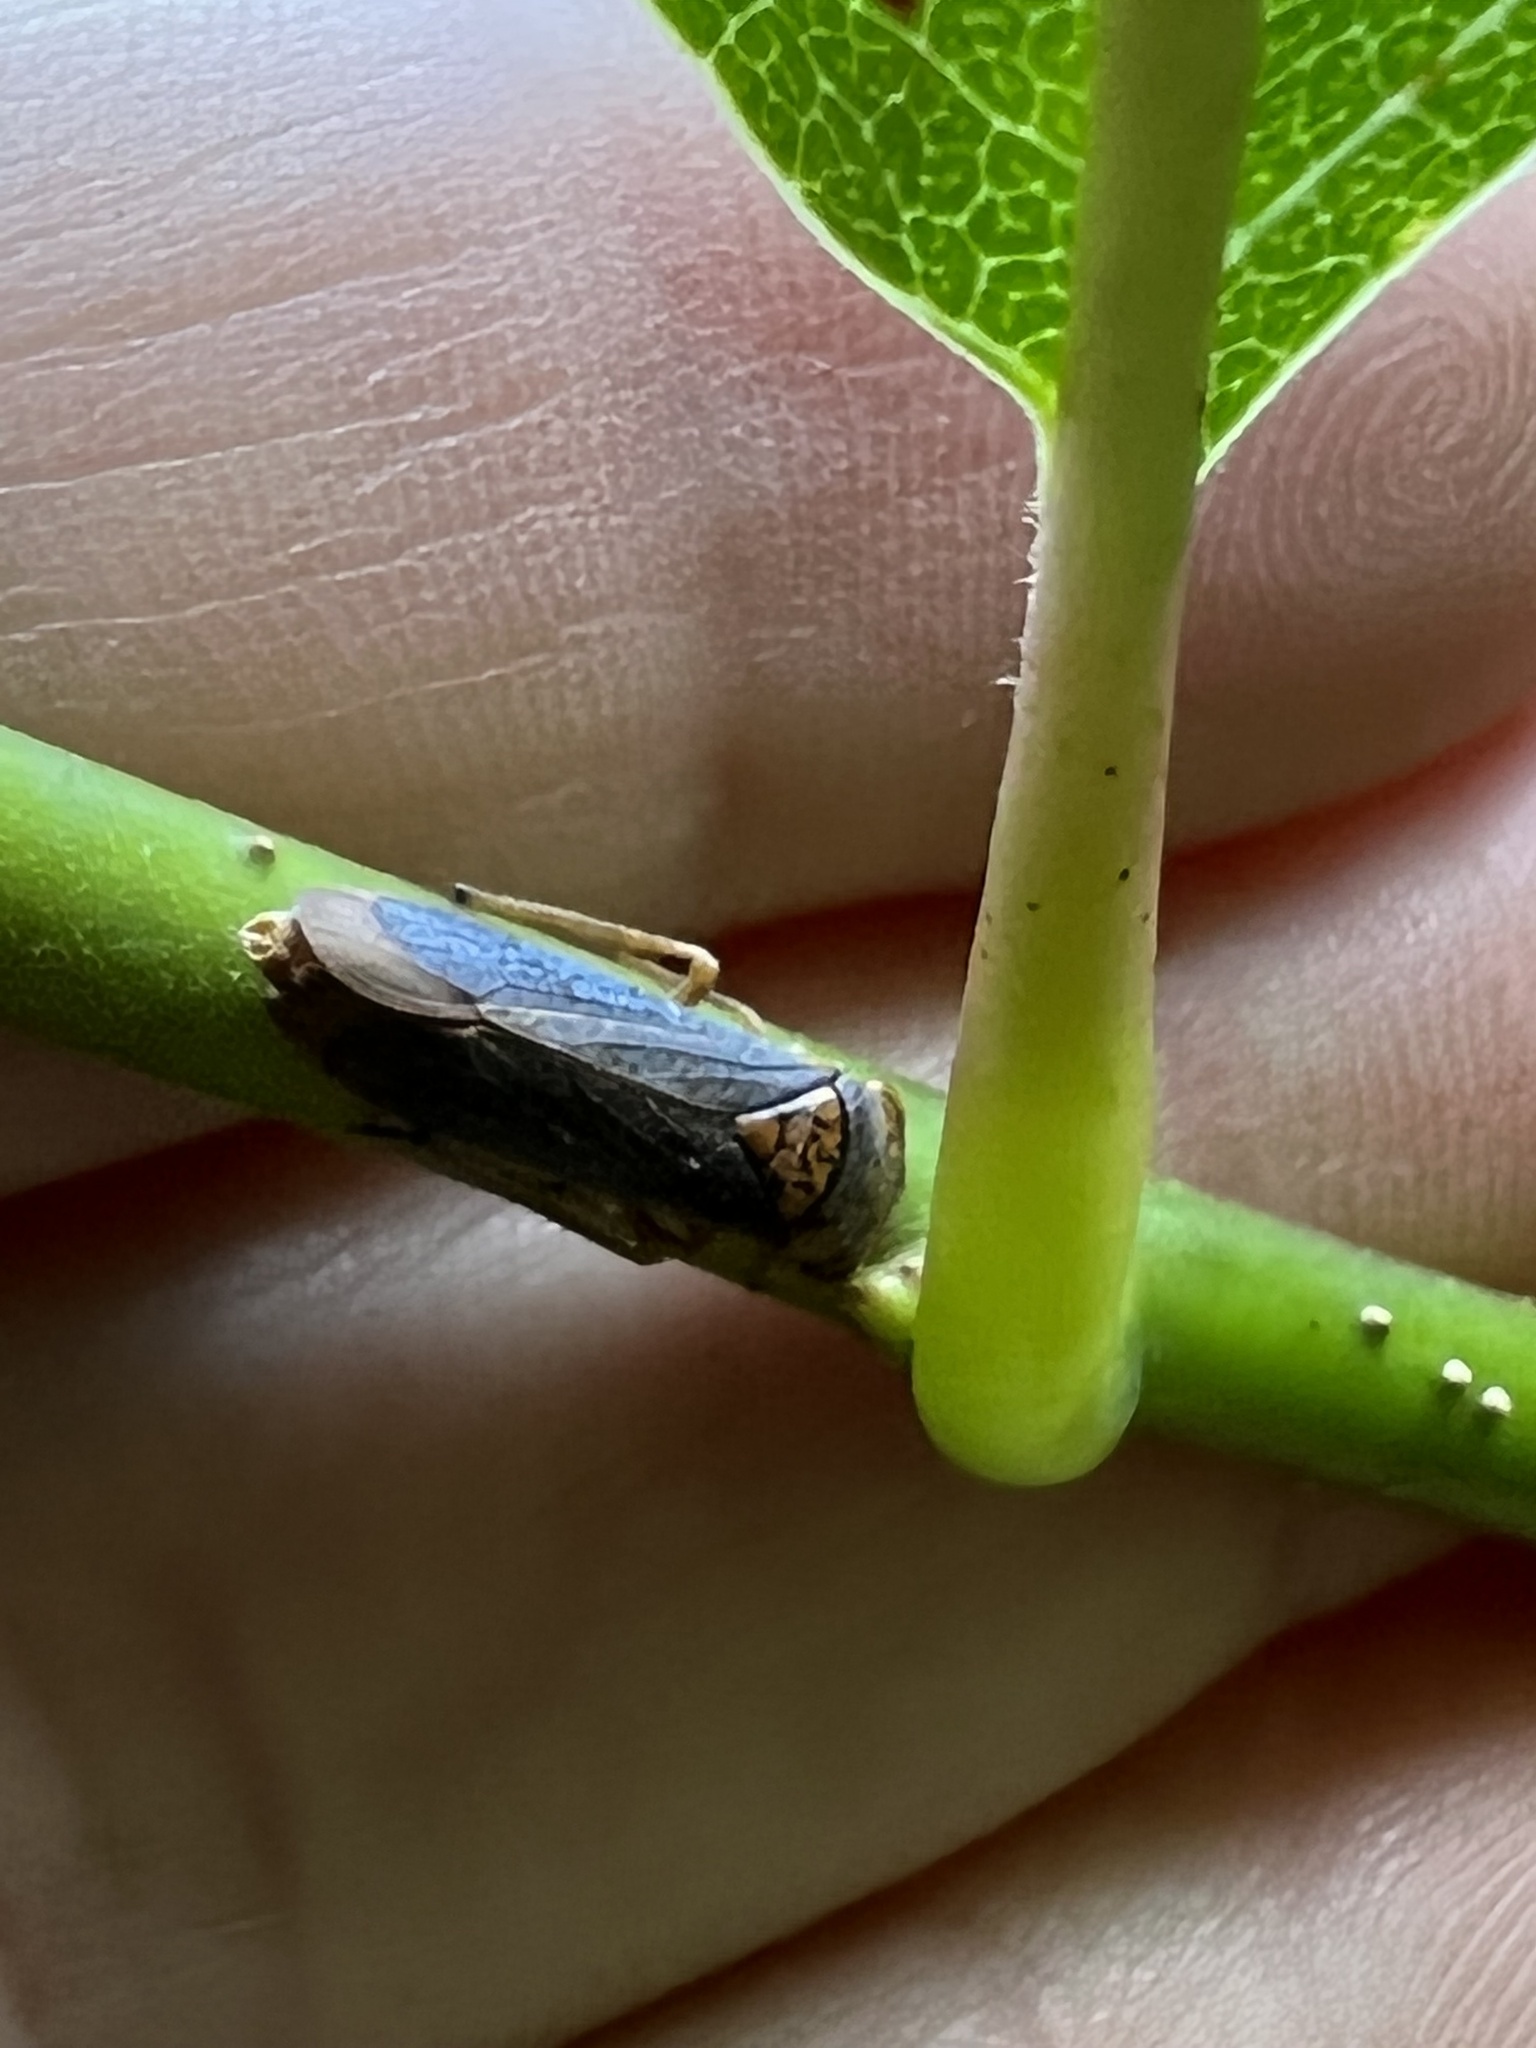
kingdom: Animalia
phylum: Arthropoda
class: Insecta
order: Hemiptera
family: Cicadellidae
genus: Oncometopia
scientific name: Oncometopia orbona
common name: Broad-headed sharpshooter
